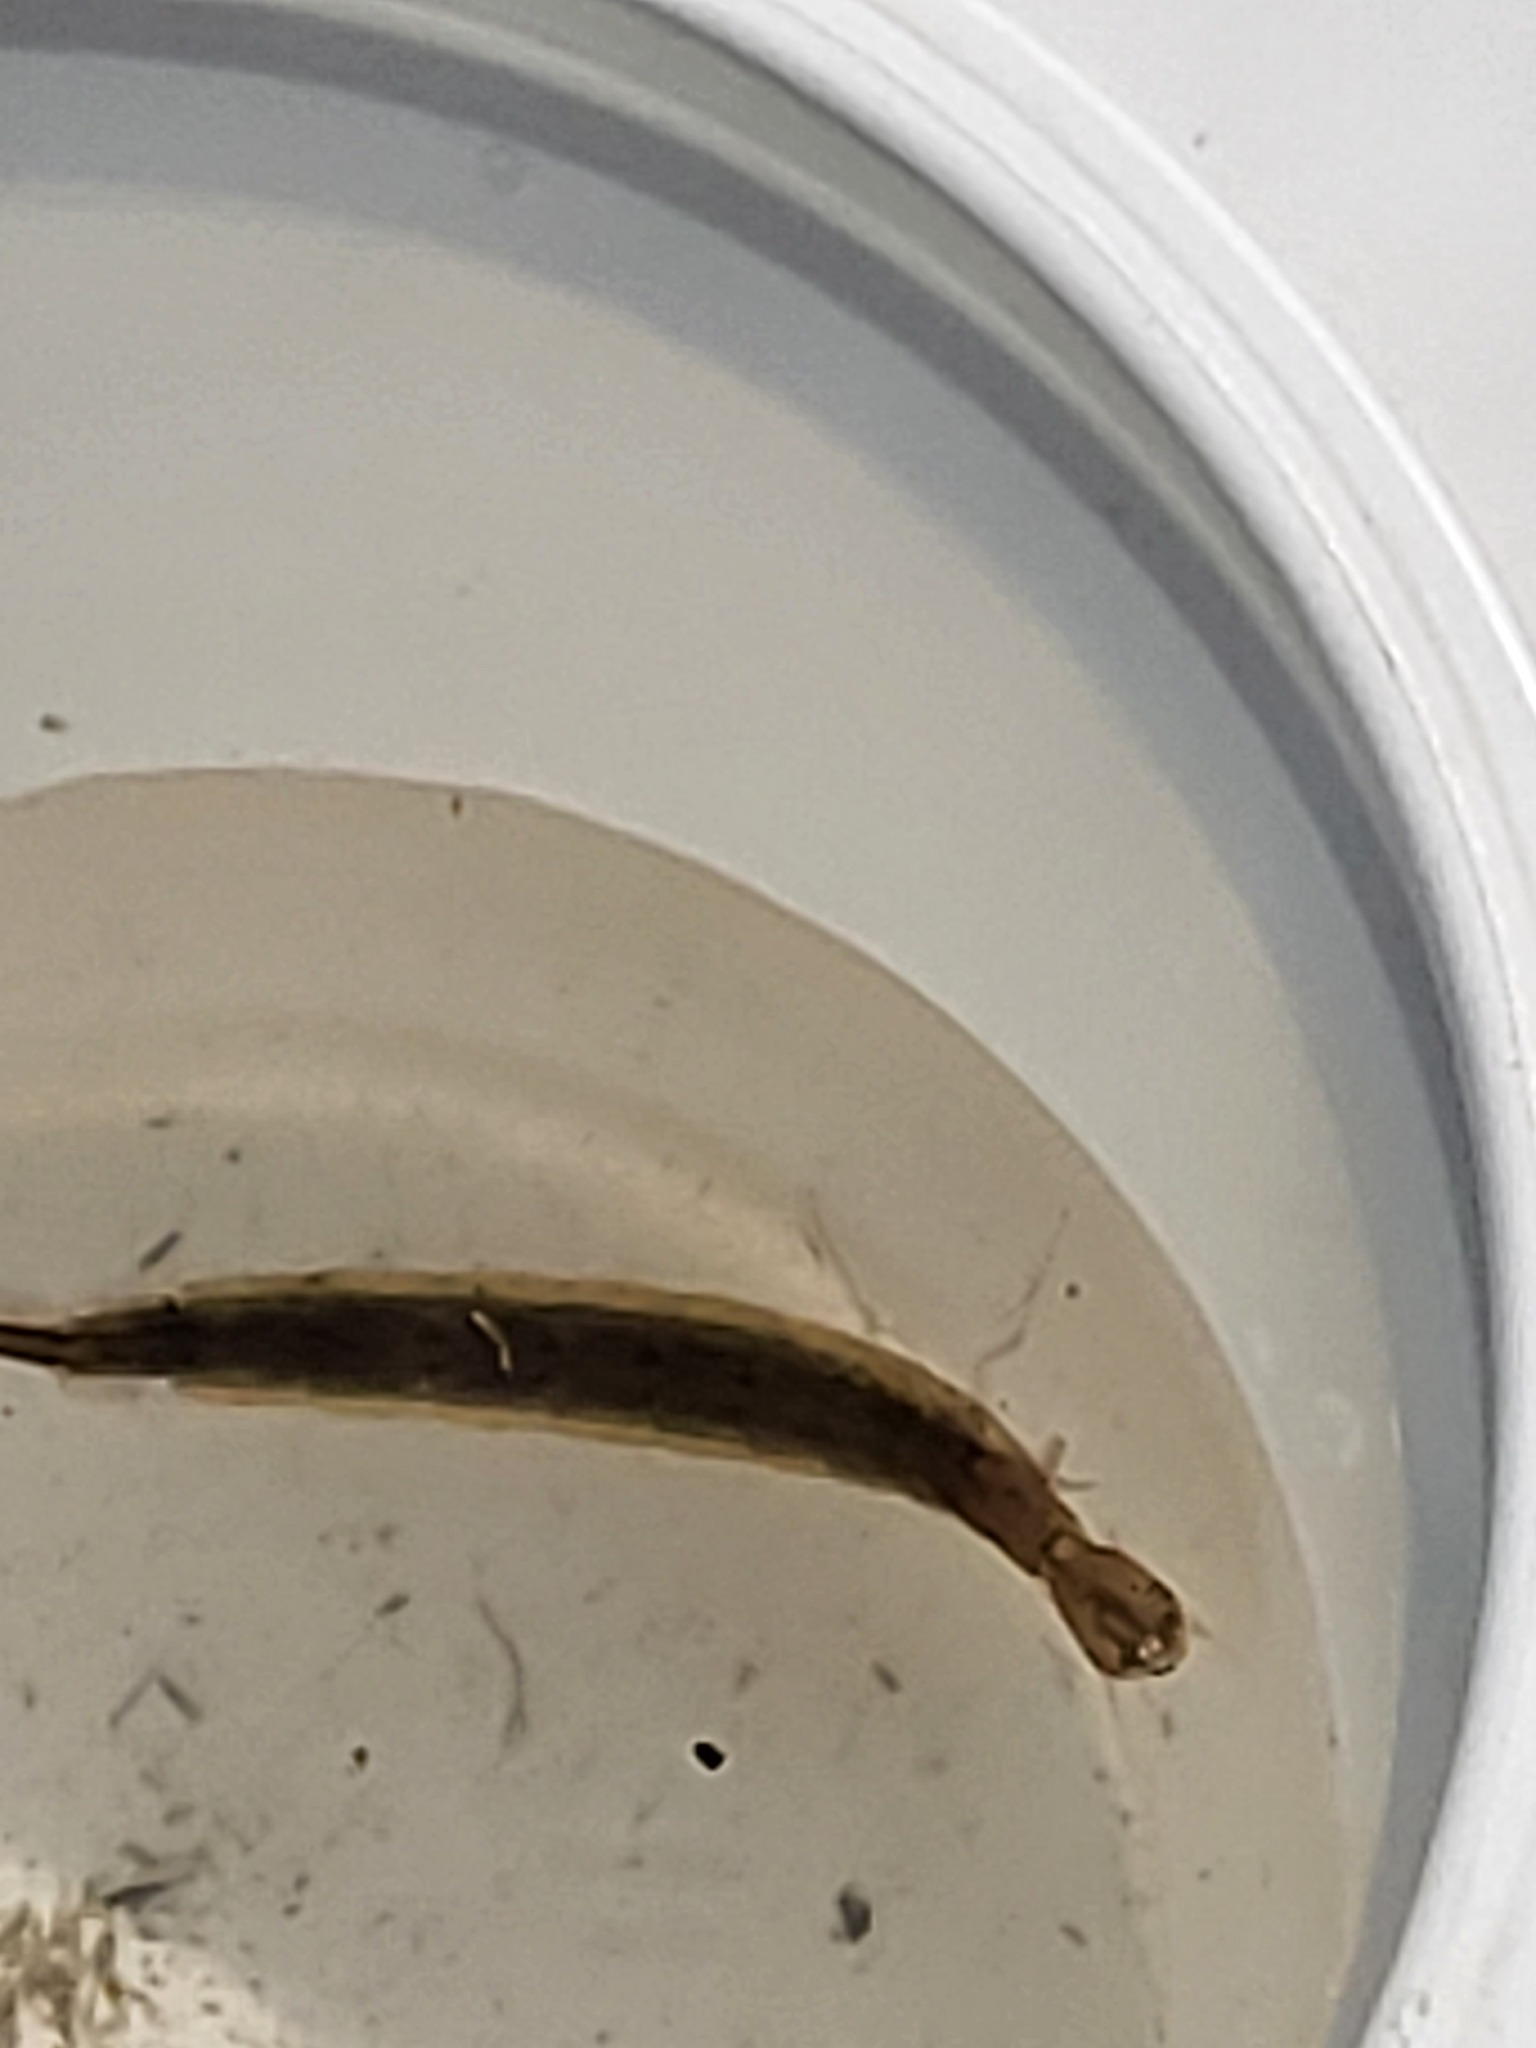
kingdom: Animalia
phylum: Arthropoda
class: Insecta
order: Coleoptera
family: Dytiscidae
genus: Cybister
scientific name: Cybister fimbriolatus
